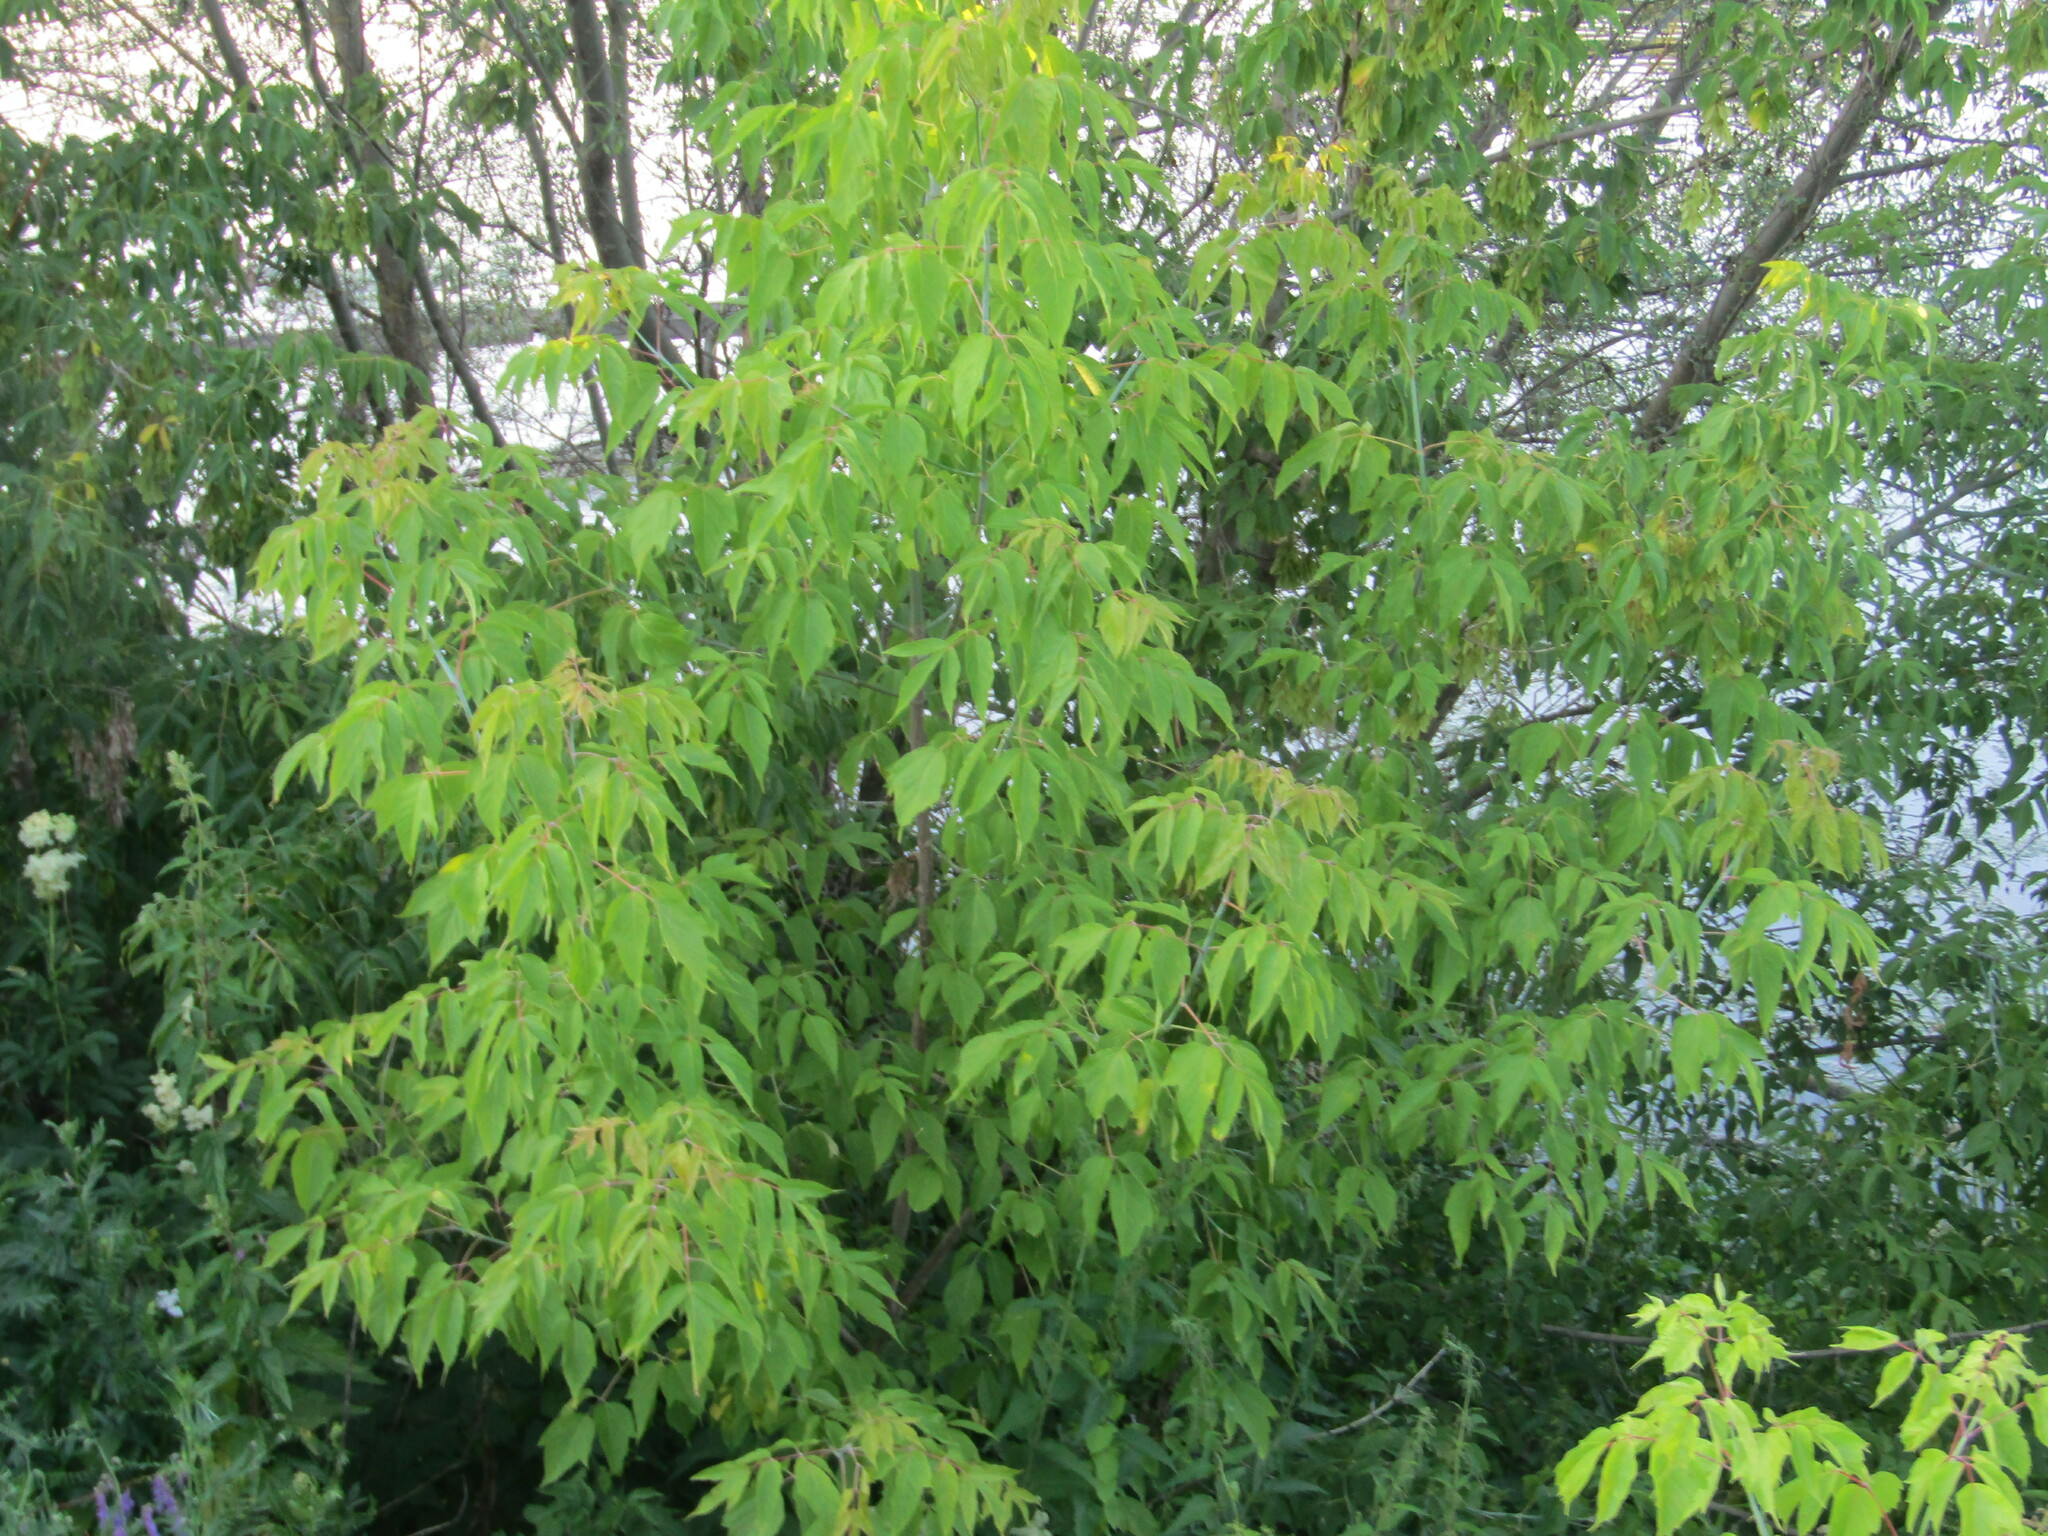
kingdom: Plantae
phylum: Tracheophyta
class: Magnoliopsida
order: Sapindales
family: Sapindaceae
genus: Acer
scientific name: Acer negundo
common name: Ashleaf maple
